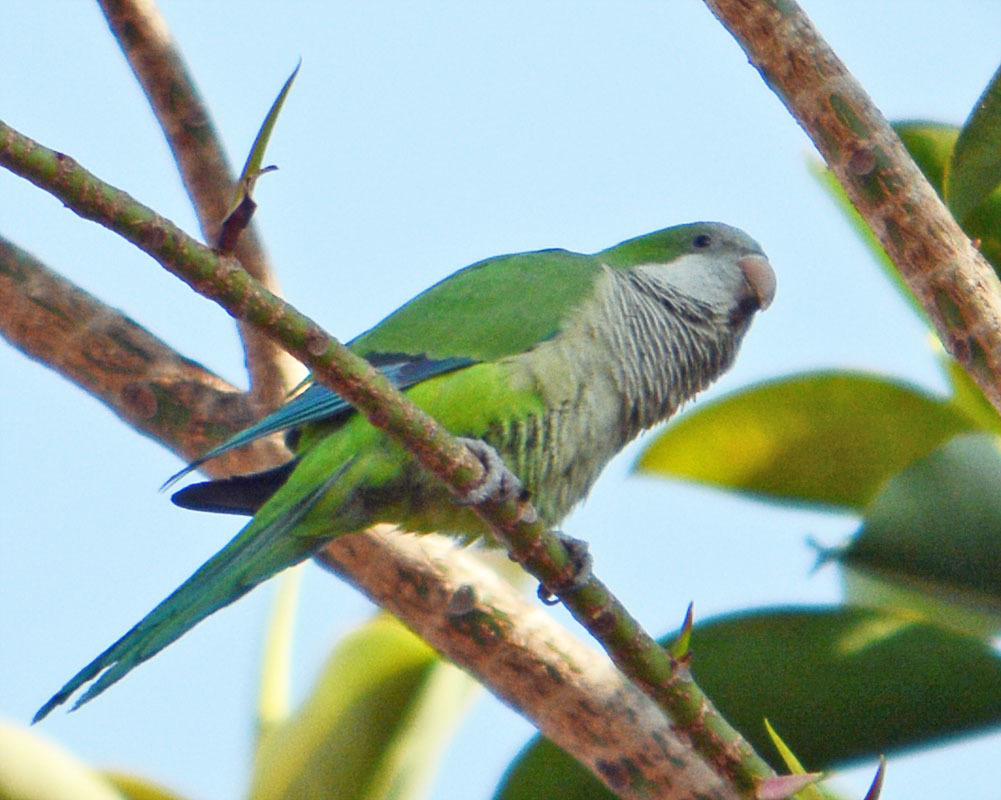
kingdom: Animalia
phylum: Chordata
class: Aves
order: Psittaciformes
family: Psittacidae
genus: Myiopsitta
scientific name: Myiopsitta monachus
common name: Monk parakeet
